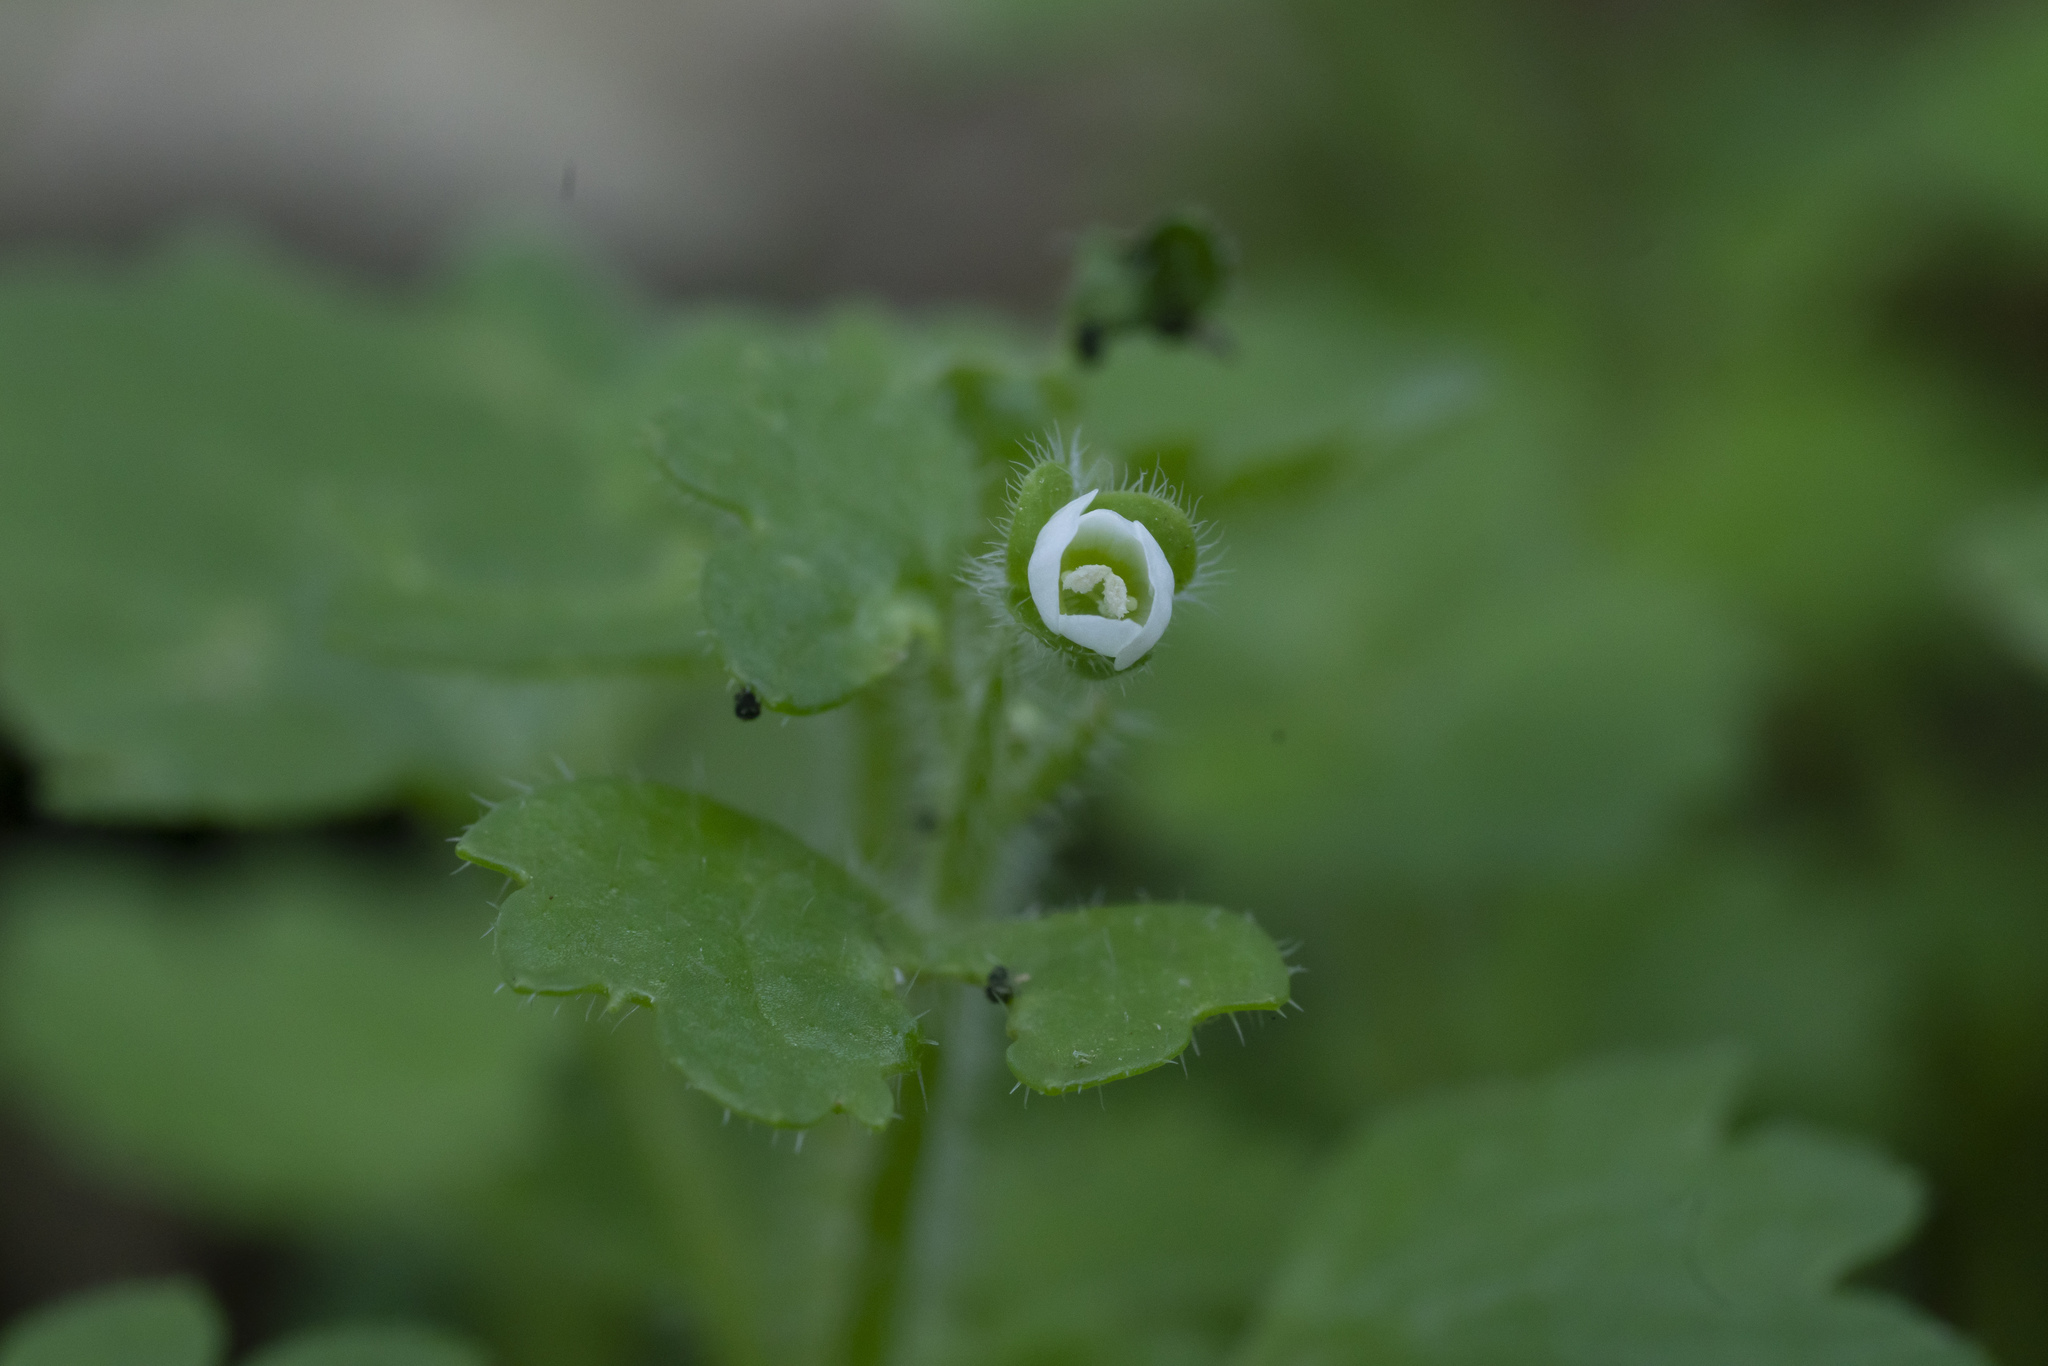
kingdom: Plantae
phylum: Tracheophyta
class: Magnoliopsida
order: Lamiales
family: Plantaginaceae
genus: Veronica
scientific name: Veronica cymbalaria
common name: Pale speedwell
